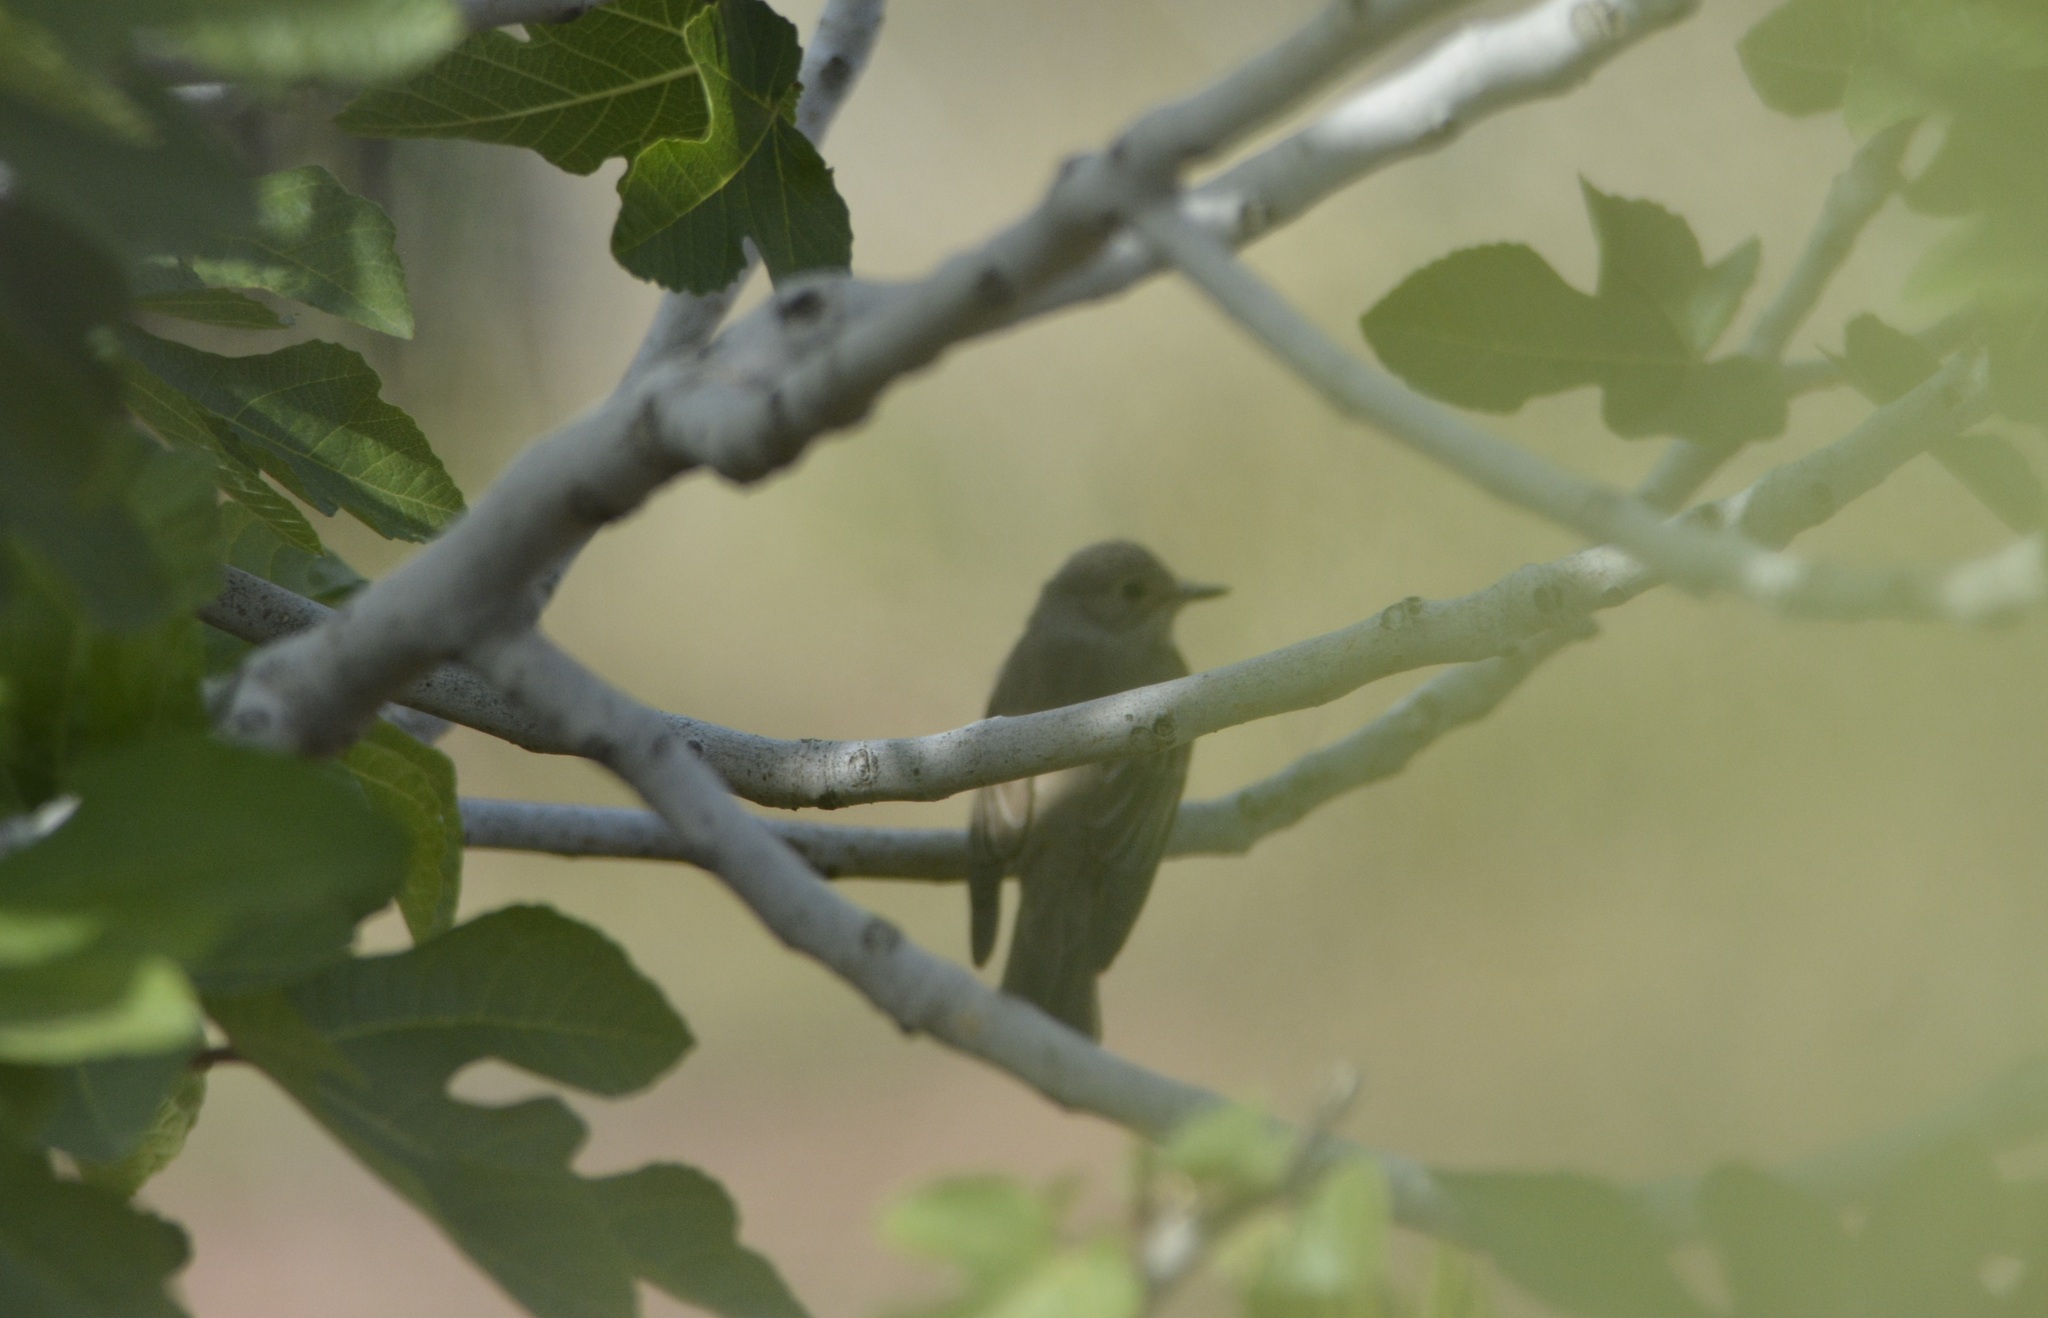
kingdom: Animalia
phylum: Chordata
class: Aves
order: Passeriformes
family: Muscicapidae
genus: Muscicapa
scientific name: Muscicapa striata
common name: Spotted flycatcher
